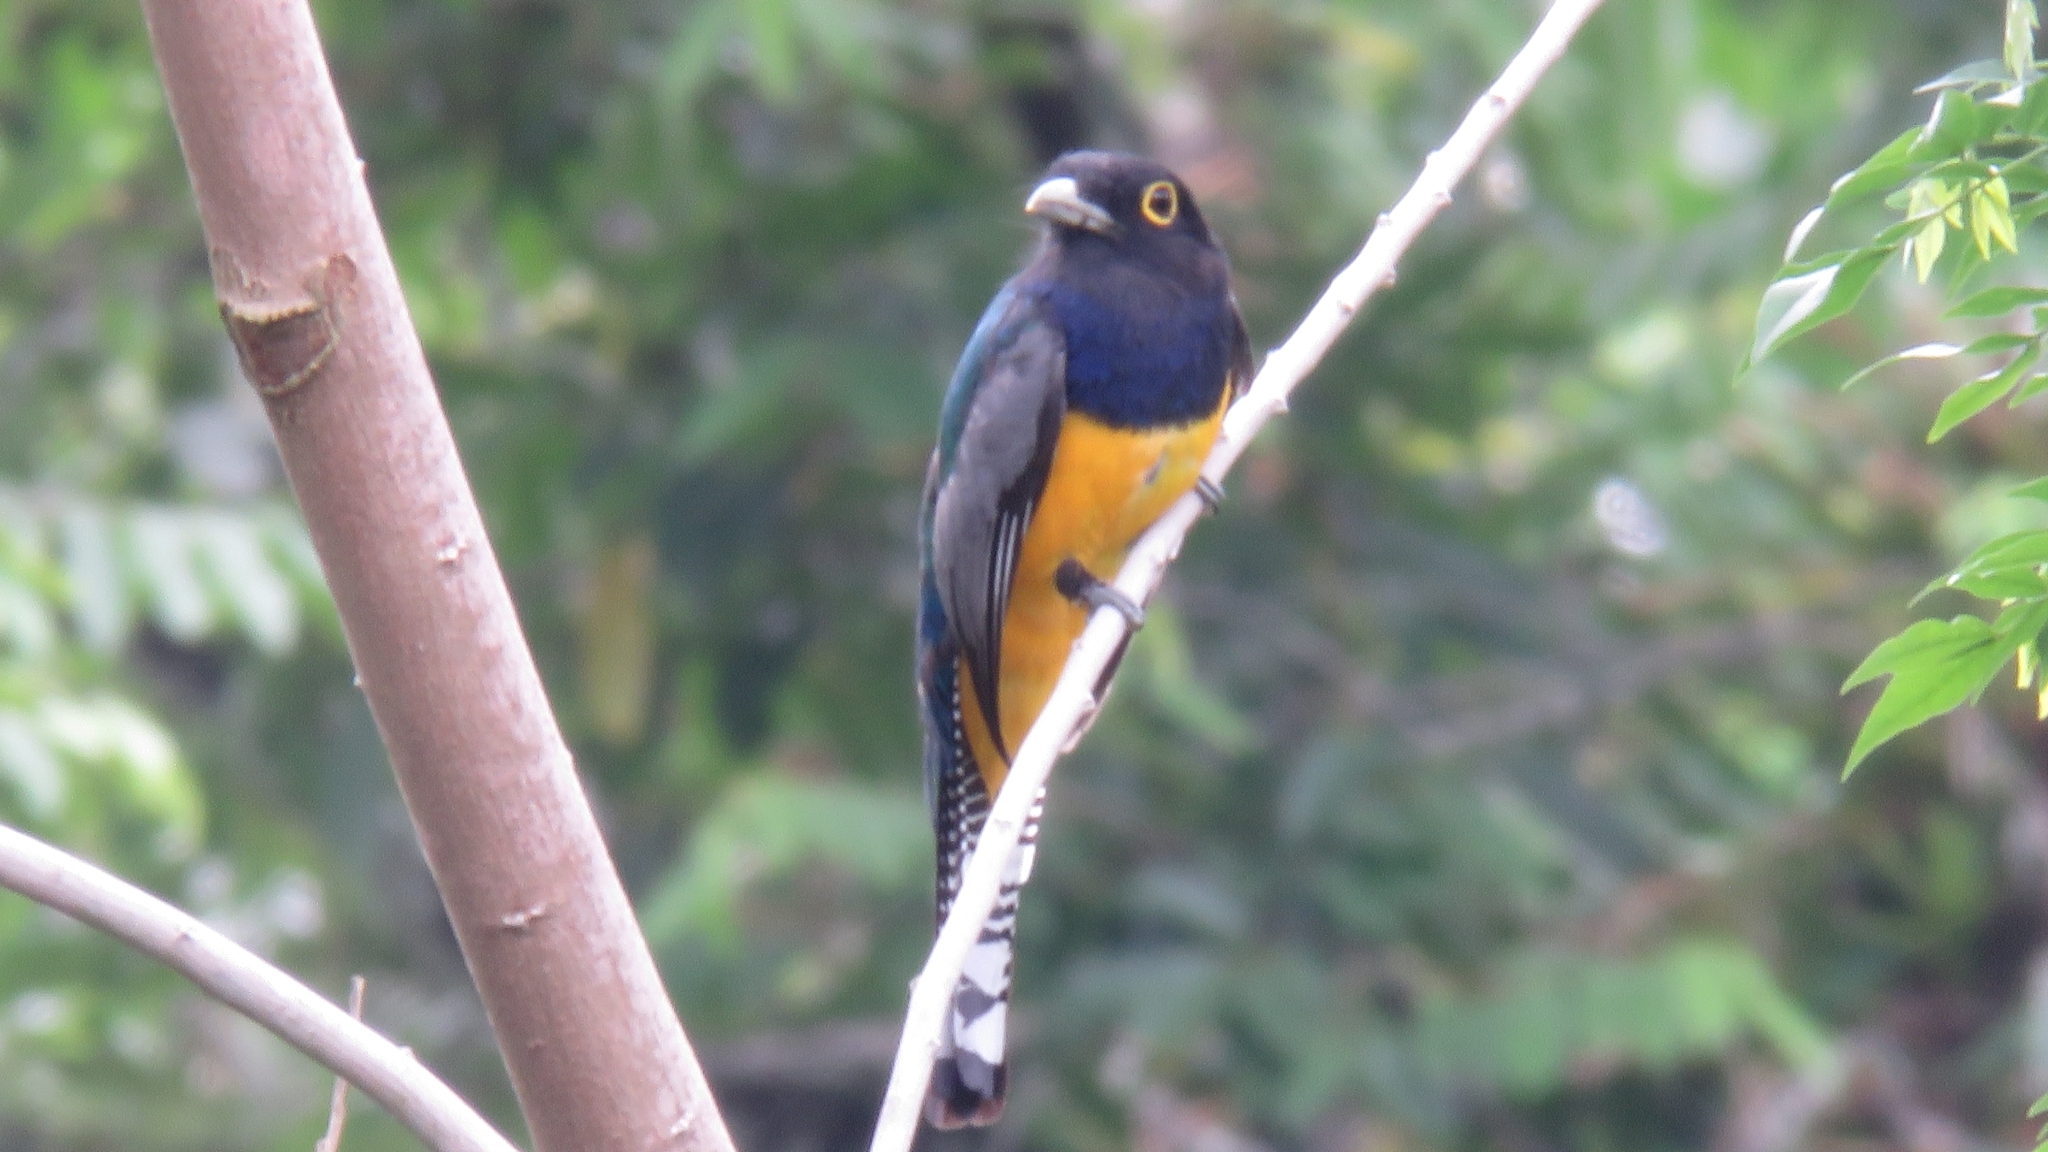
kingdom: Animalia
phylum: Chordata
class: Aves
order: Trogoniformes
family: Trogonidae
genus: Trogon
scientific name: Trogon caligatus
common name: Gartered trogon
